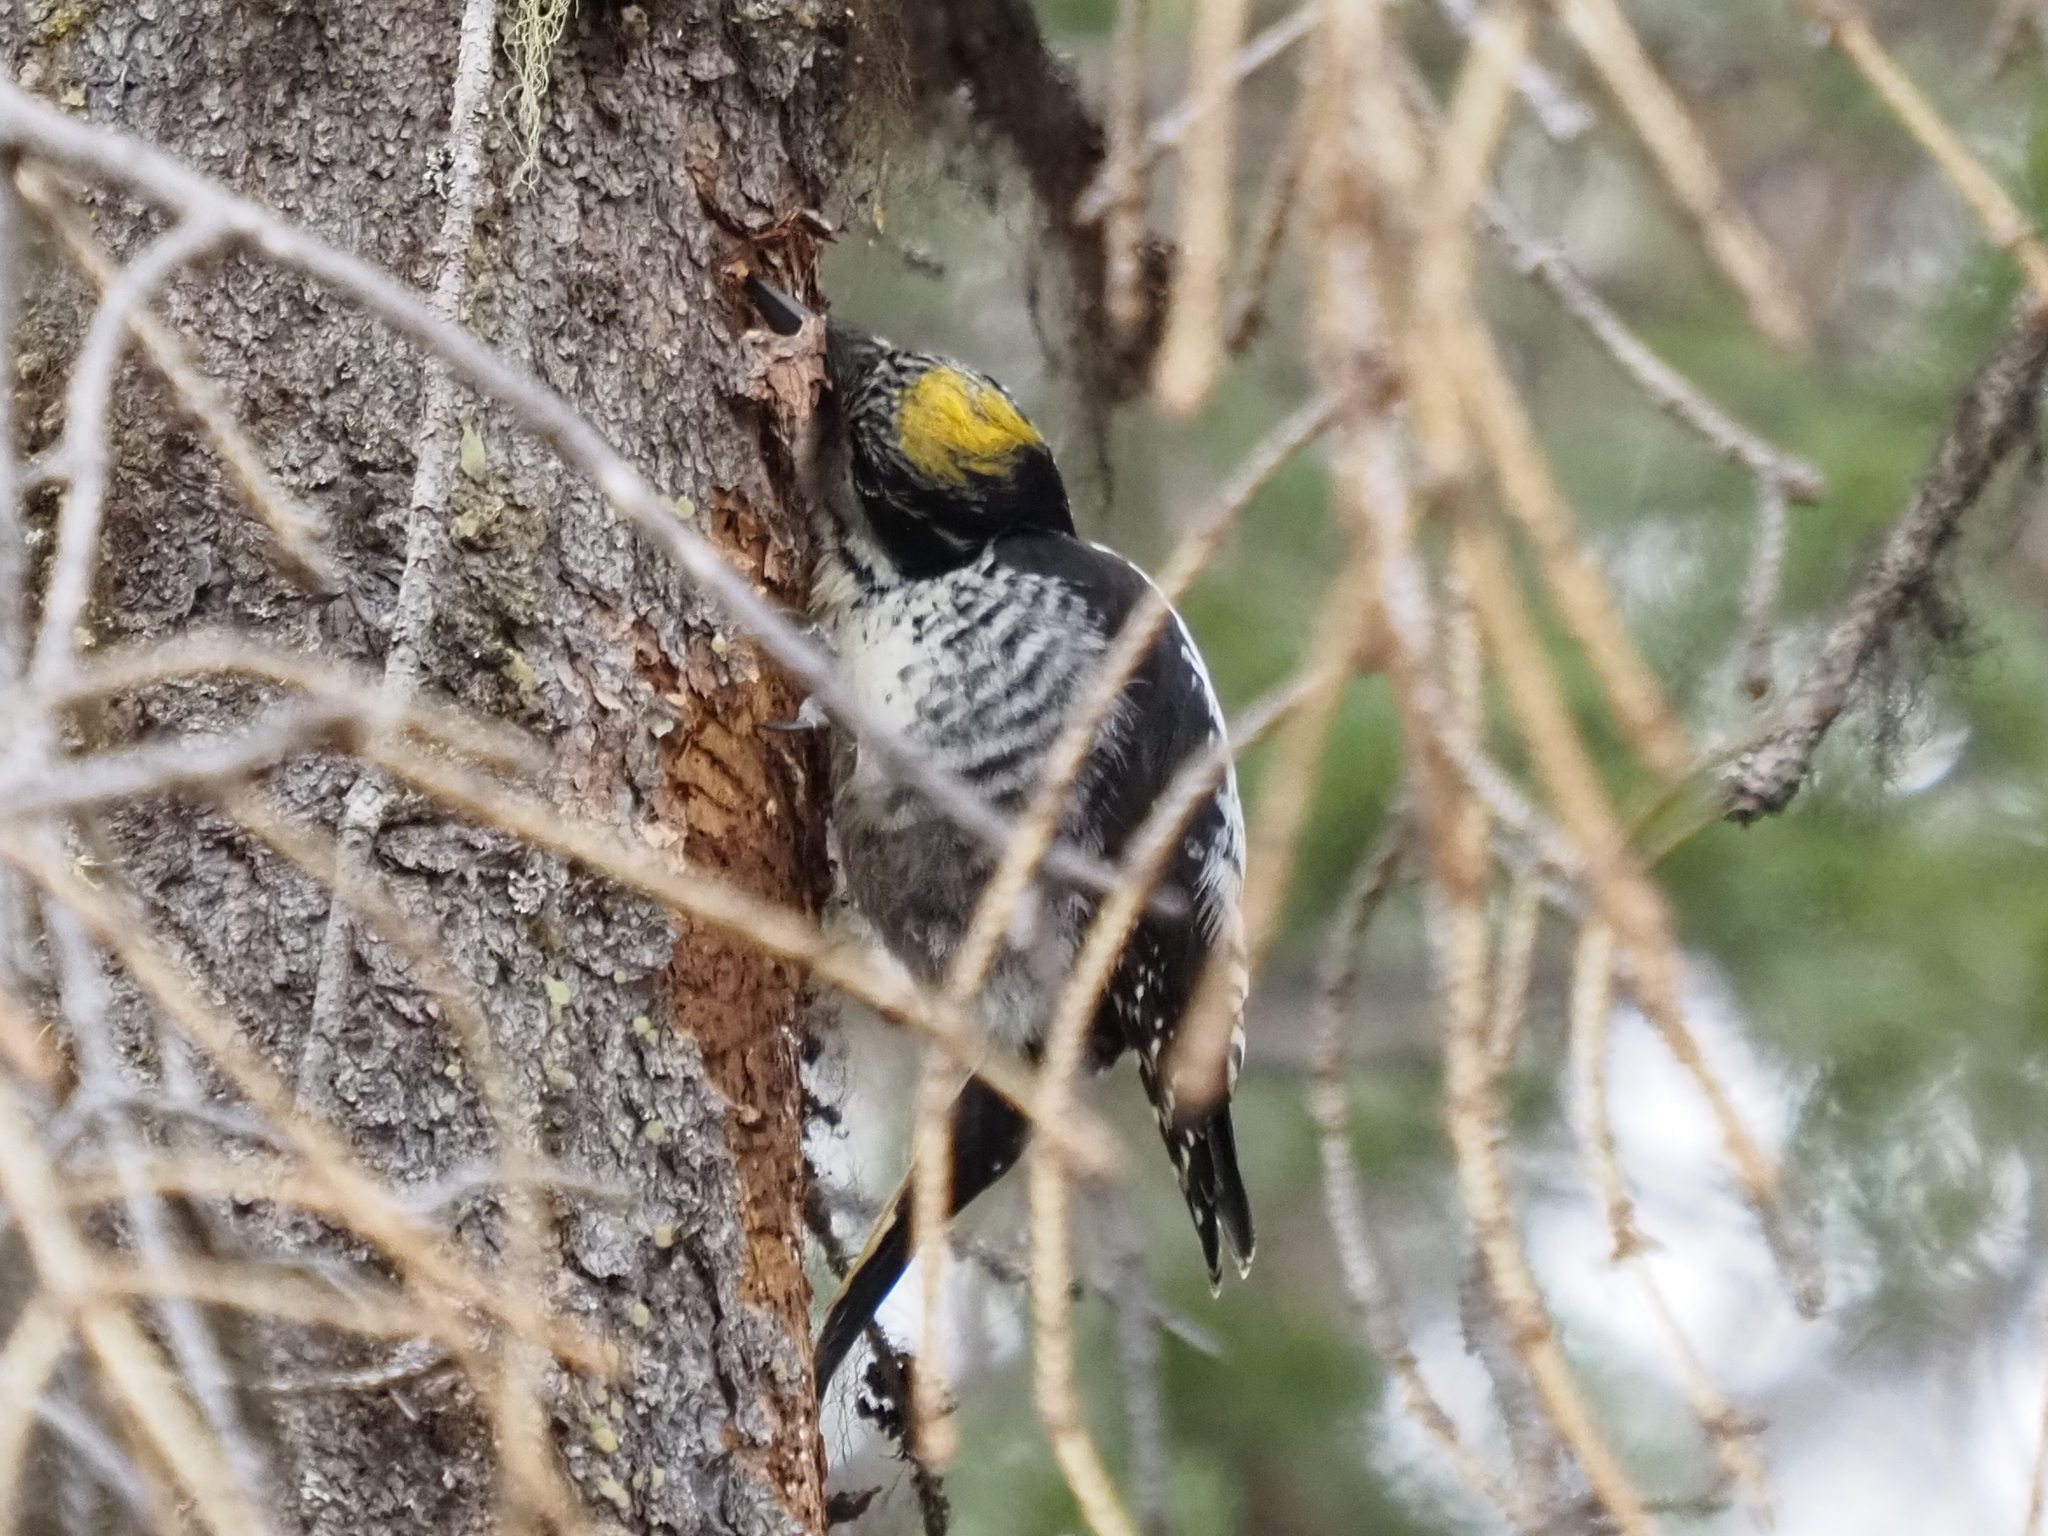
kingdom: Animalia
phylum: Chordata
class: Aves
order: Piciformes
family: Picidae
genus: Picoides
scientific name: Picoides dorsalis
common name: American three-toed woodpecker
